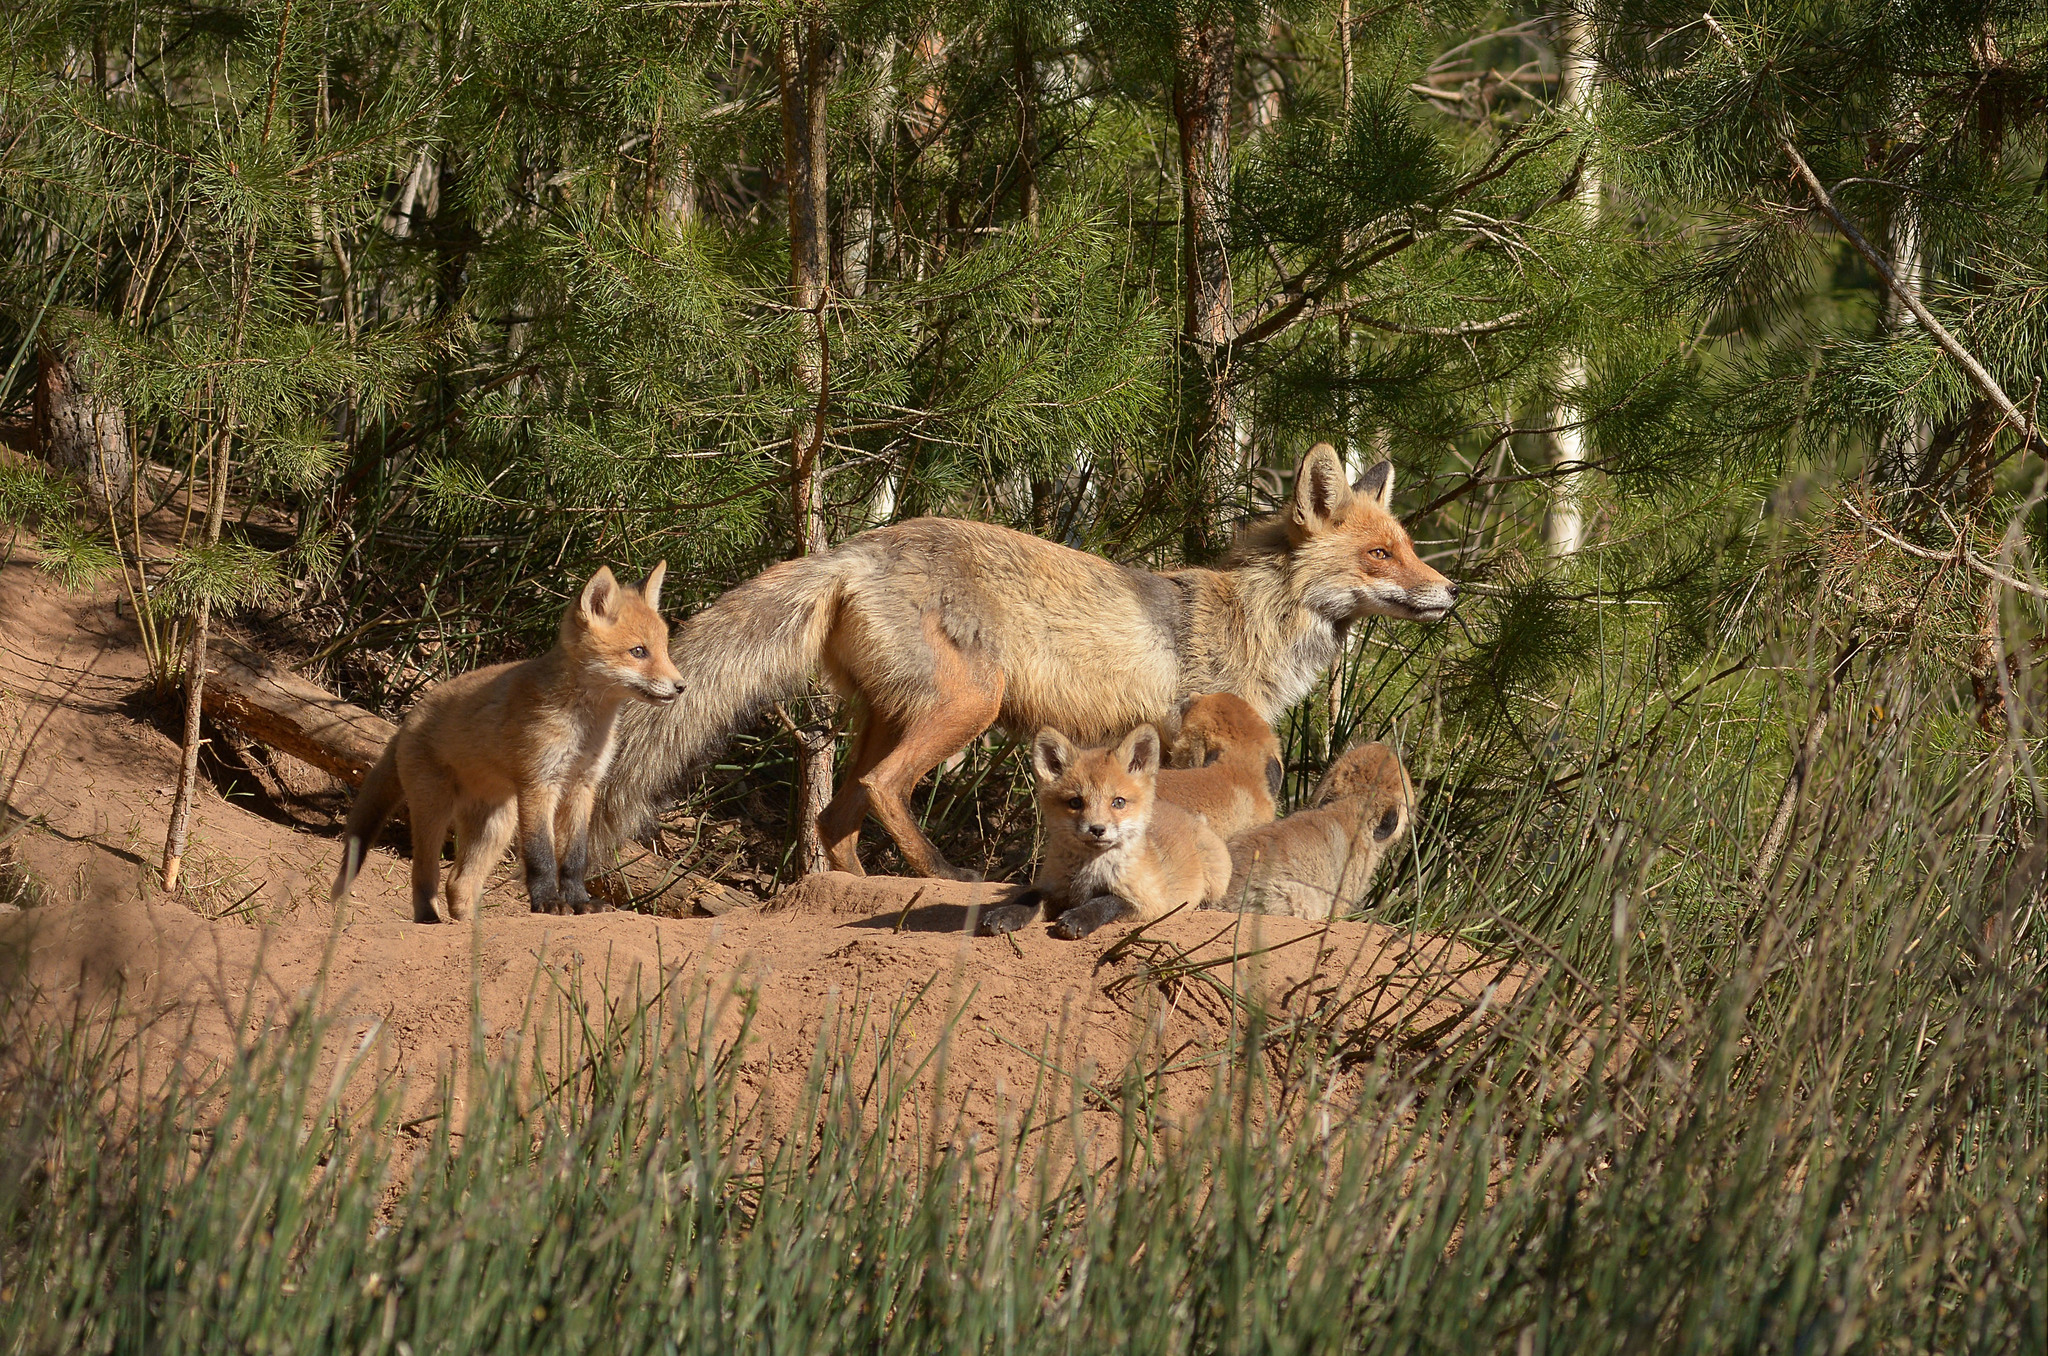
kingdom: Animalia
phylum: Chordata
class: Mammalia
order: Carnivora
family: Canidae
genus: Vulpes
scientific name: Vulpes vulpes
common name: Red fox
